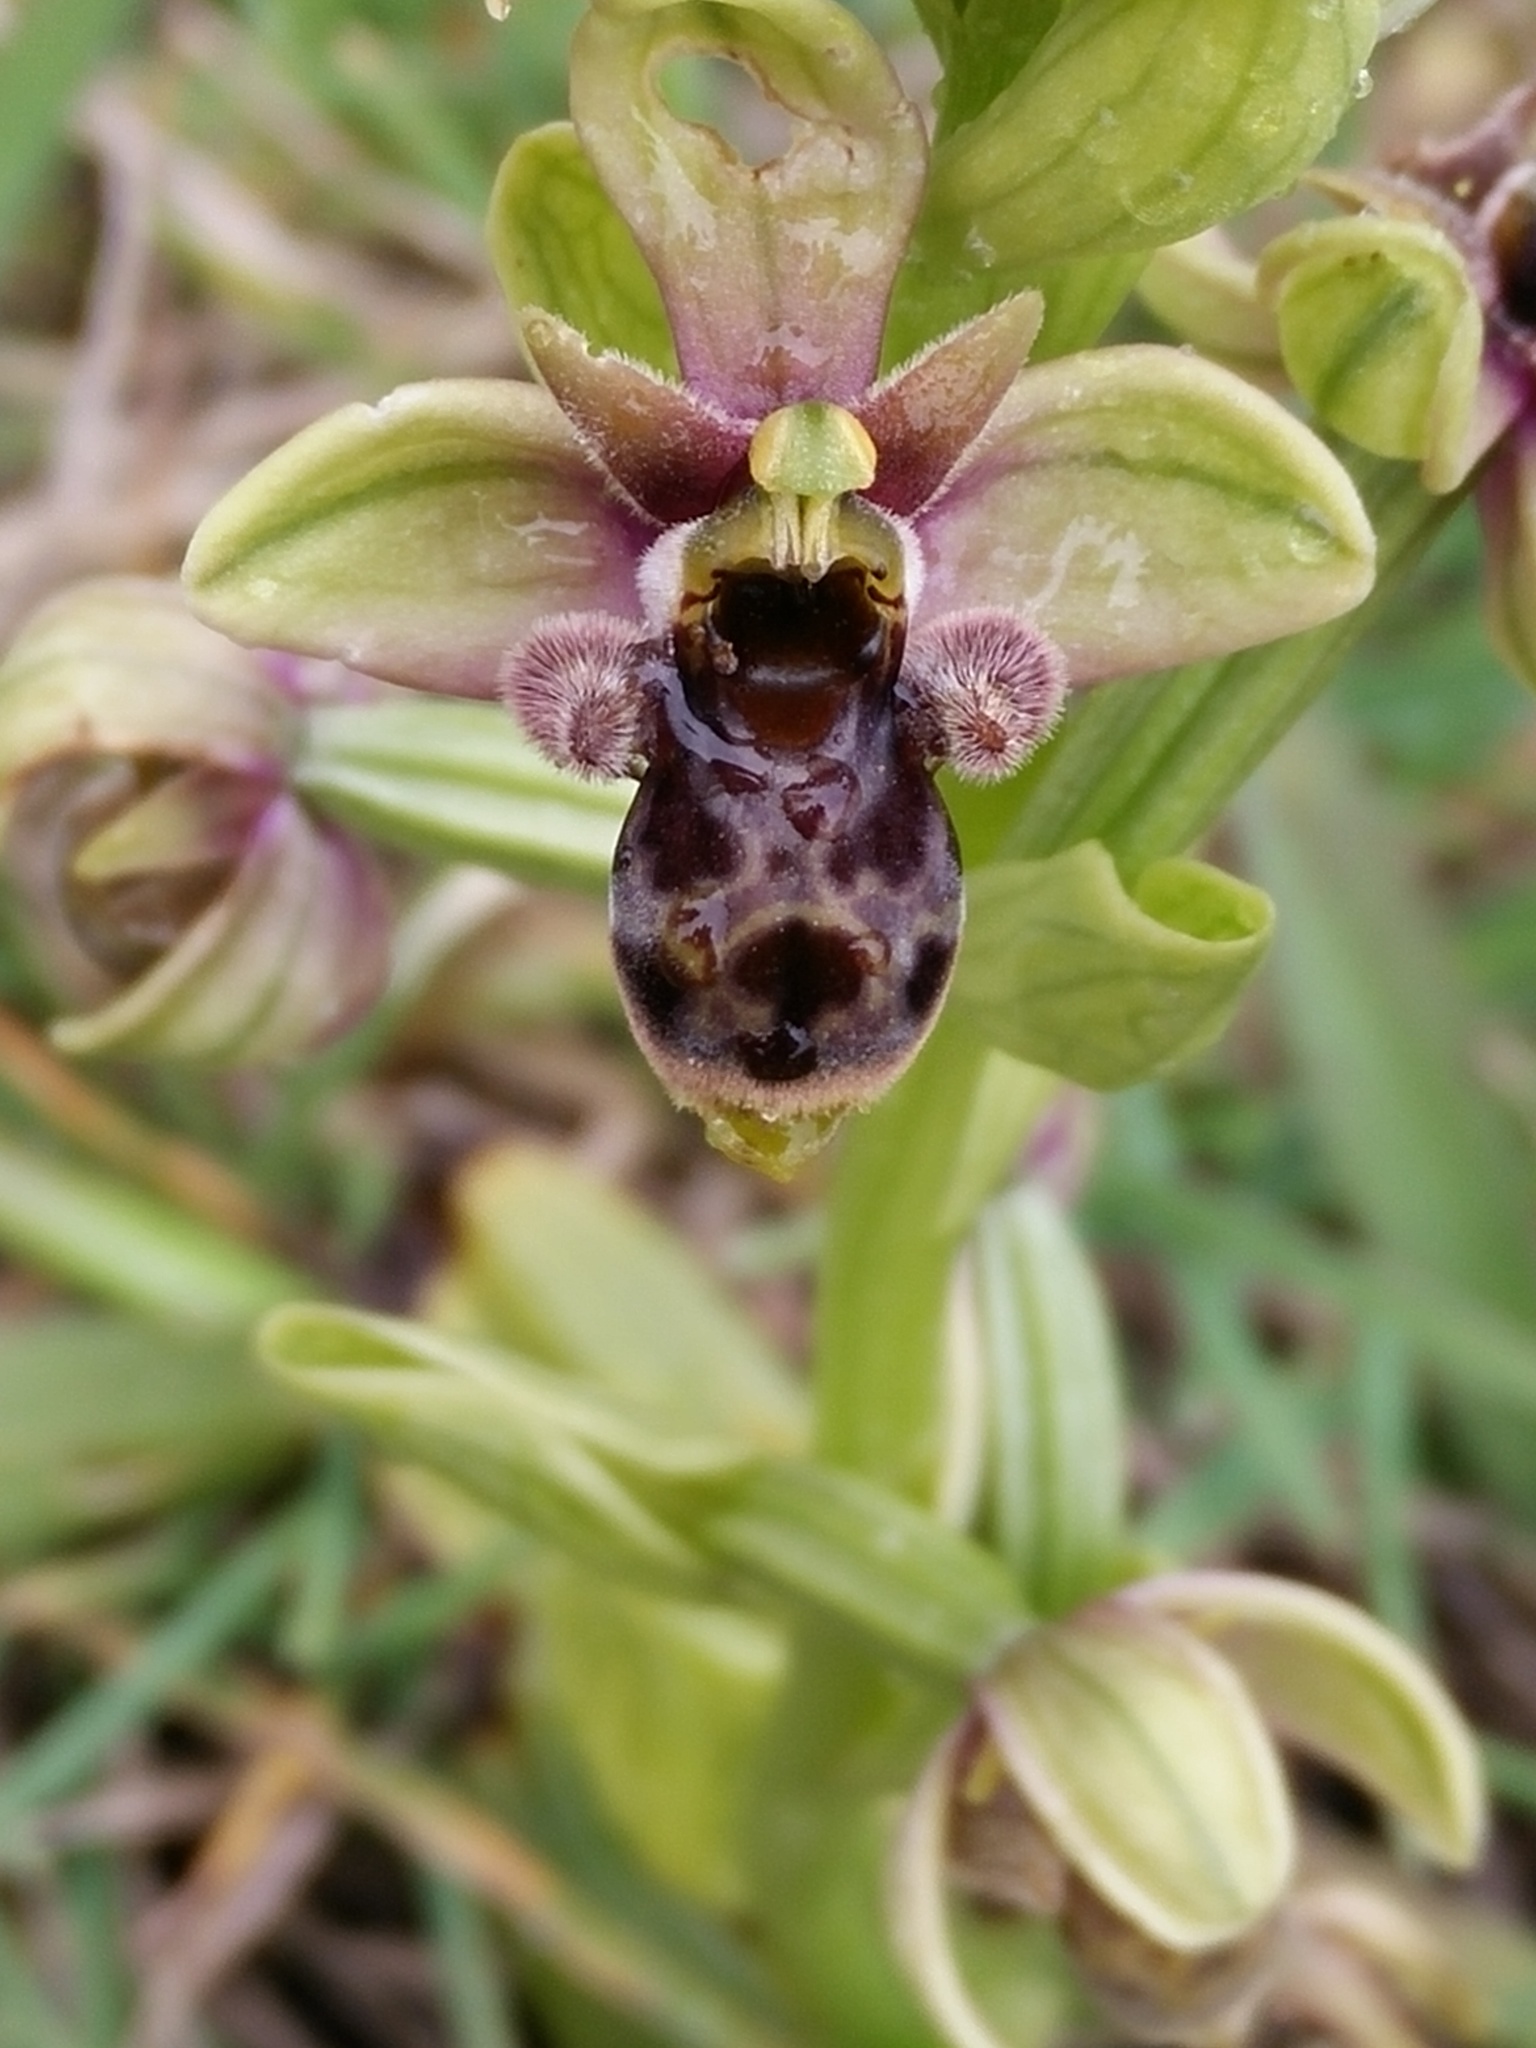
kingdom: Plantae
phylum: Tracheophyta
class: Liliopsida
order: Asparagales
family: Orchidaceae
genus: Ophrys
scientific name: Ophrys scolopax
